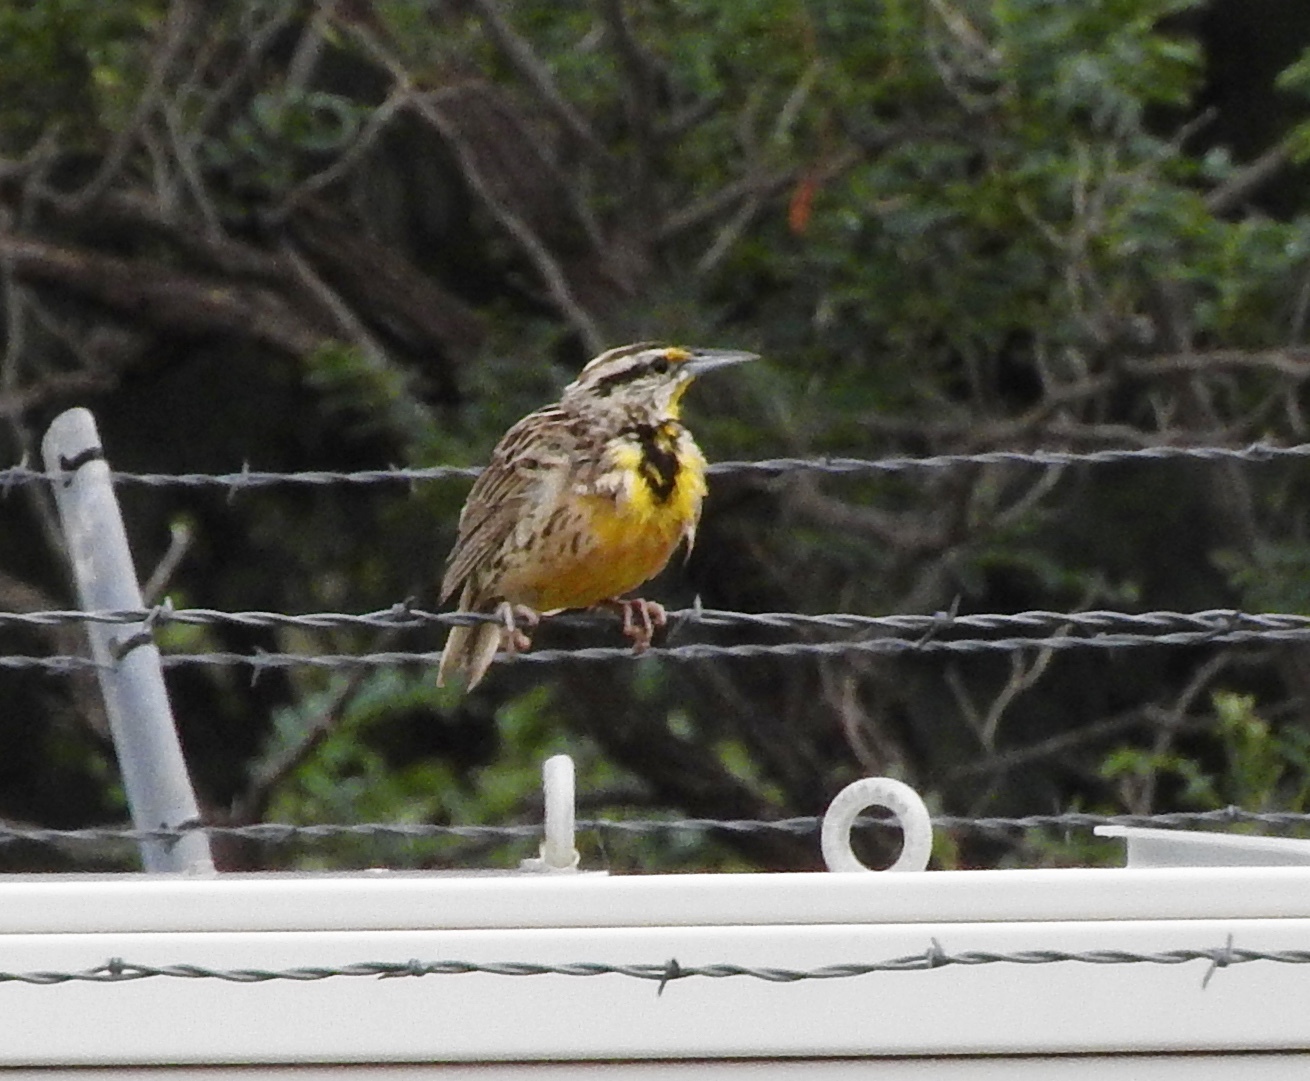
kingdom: Animalia
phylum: Chordata
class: Aves
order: Passeriformes
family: Icteridae
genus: Sturnella
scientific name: Sturnella lilianae
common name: Lilian's meadowlark
